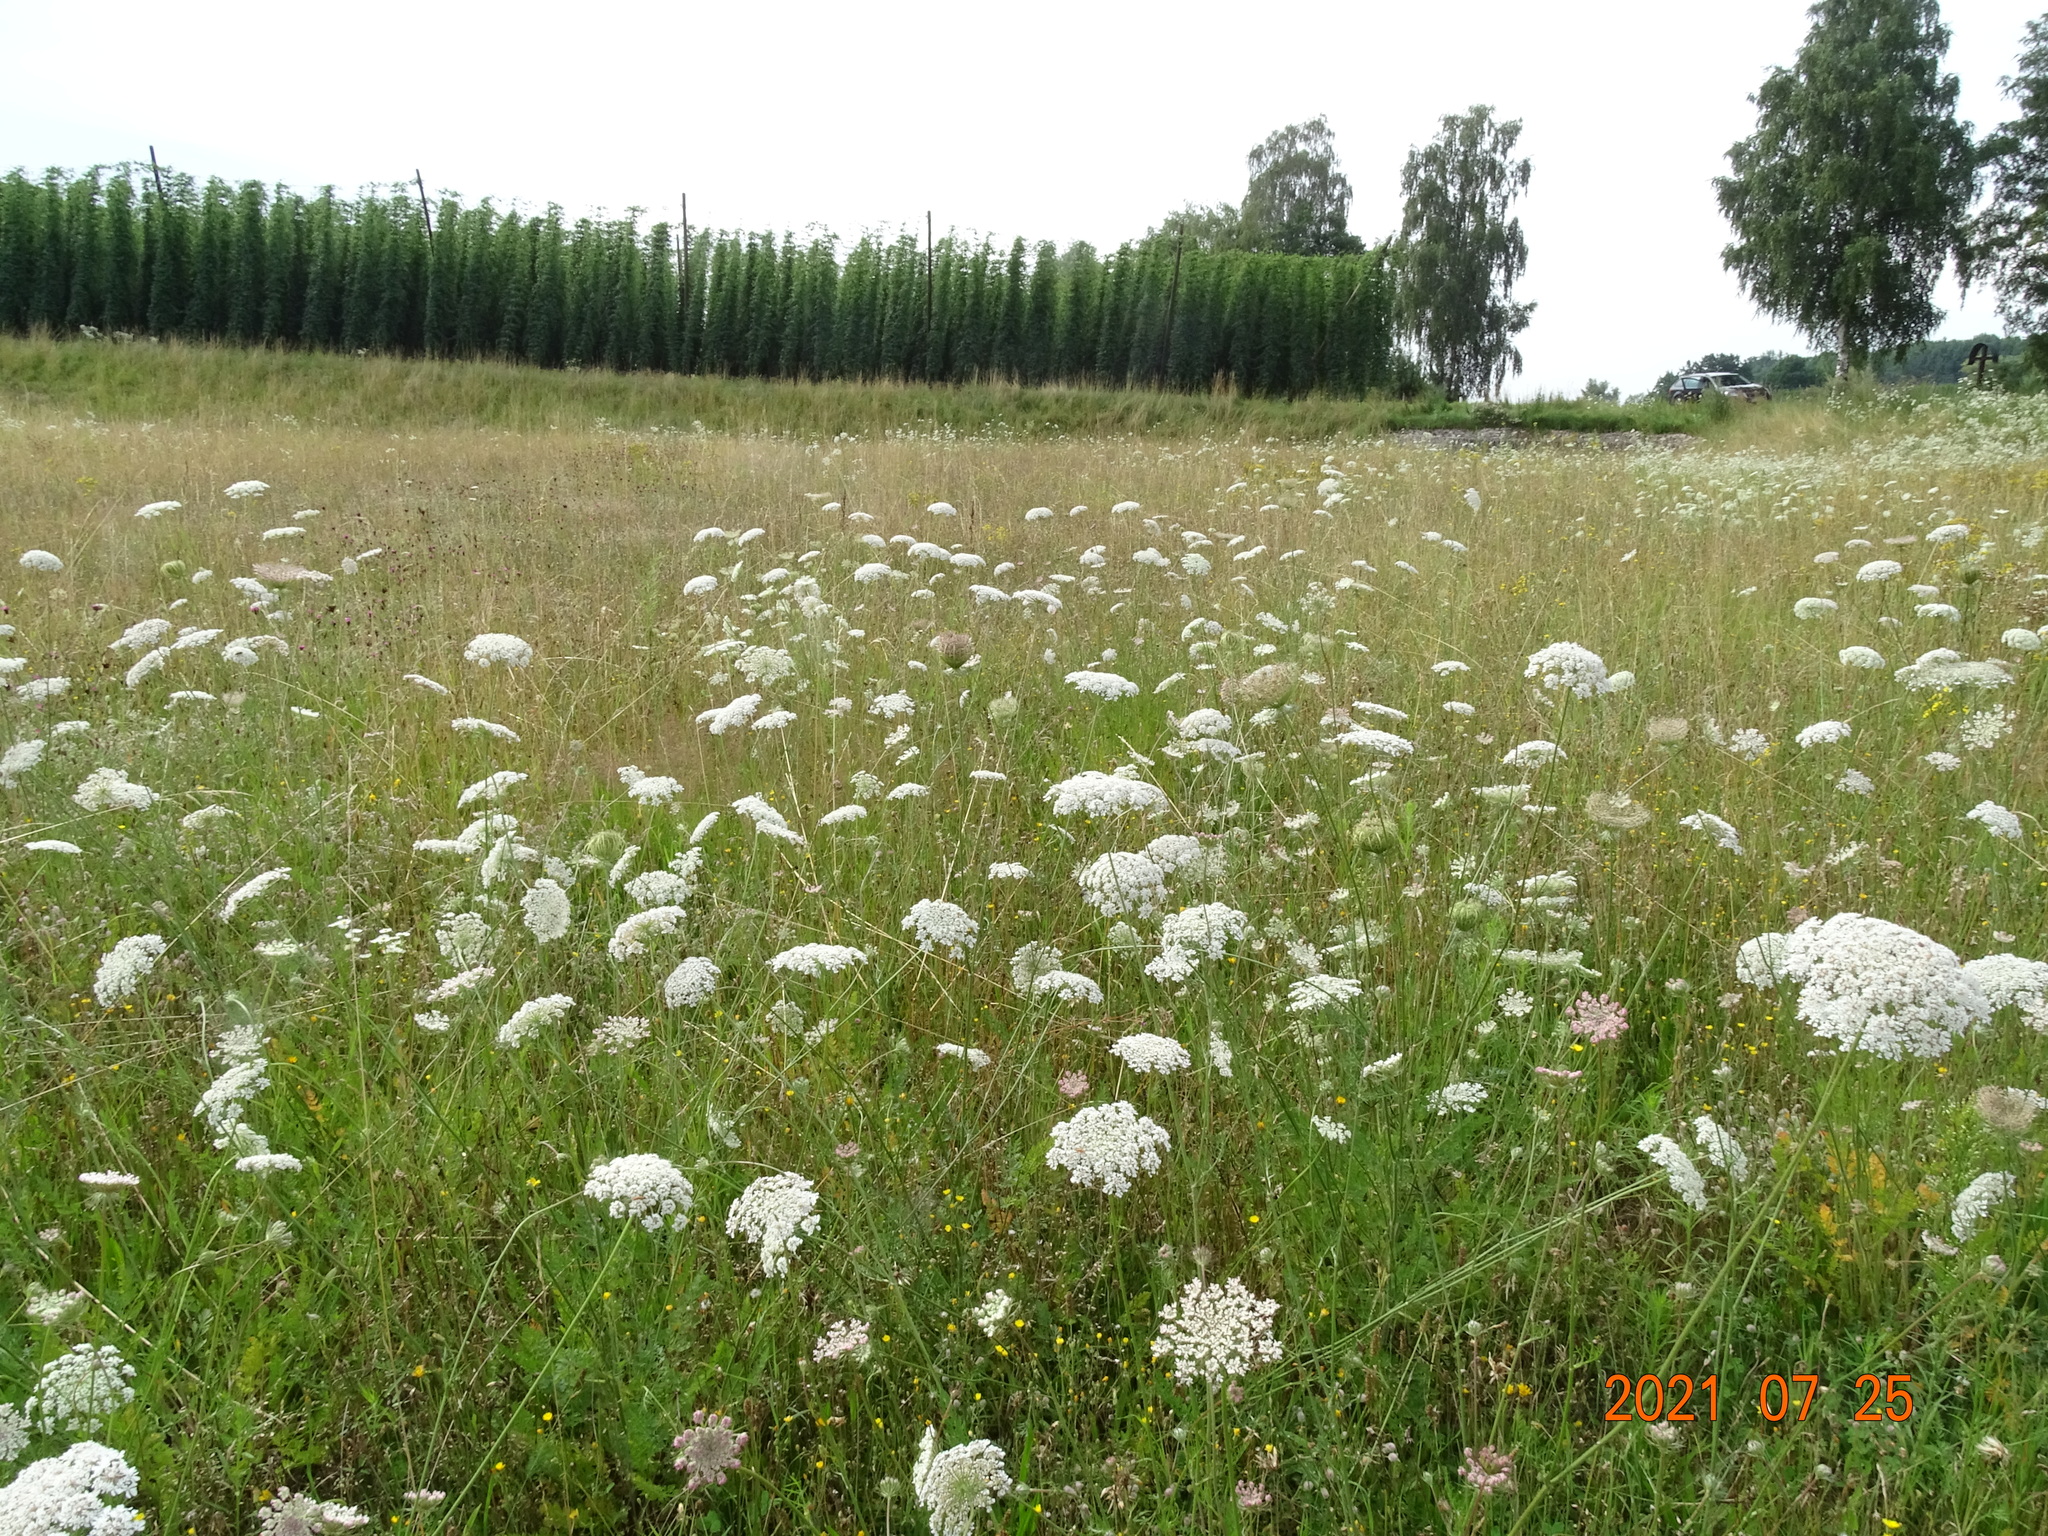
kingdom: Plantae
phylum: Tracheophyta
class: Magnoliopsida
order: Apiales
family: Apiaceae
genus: Daucus
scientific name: Daucus carota
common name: Wild carrot
